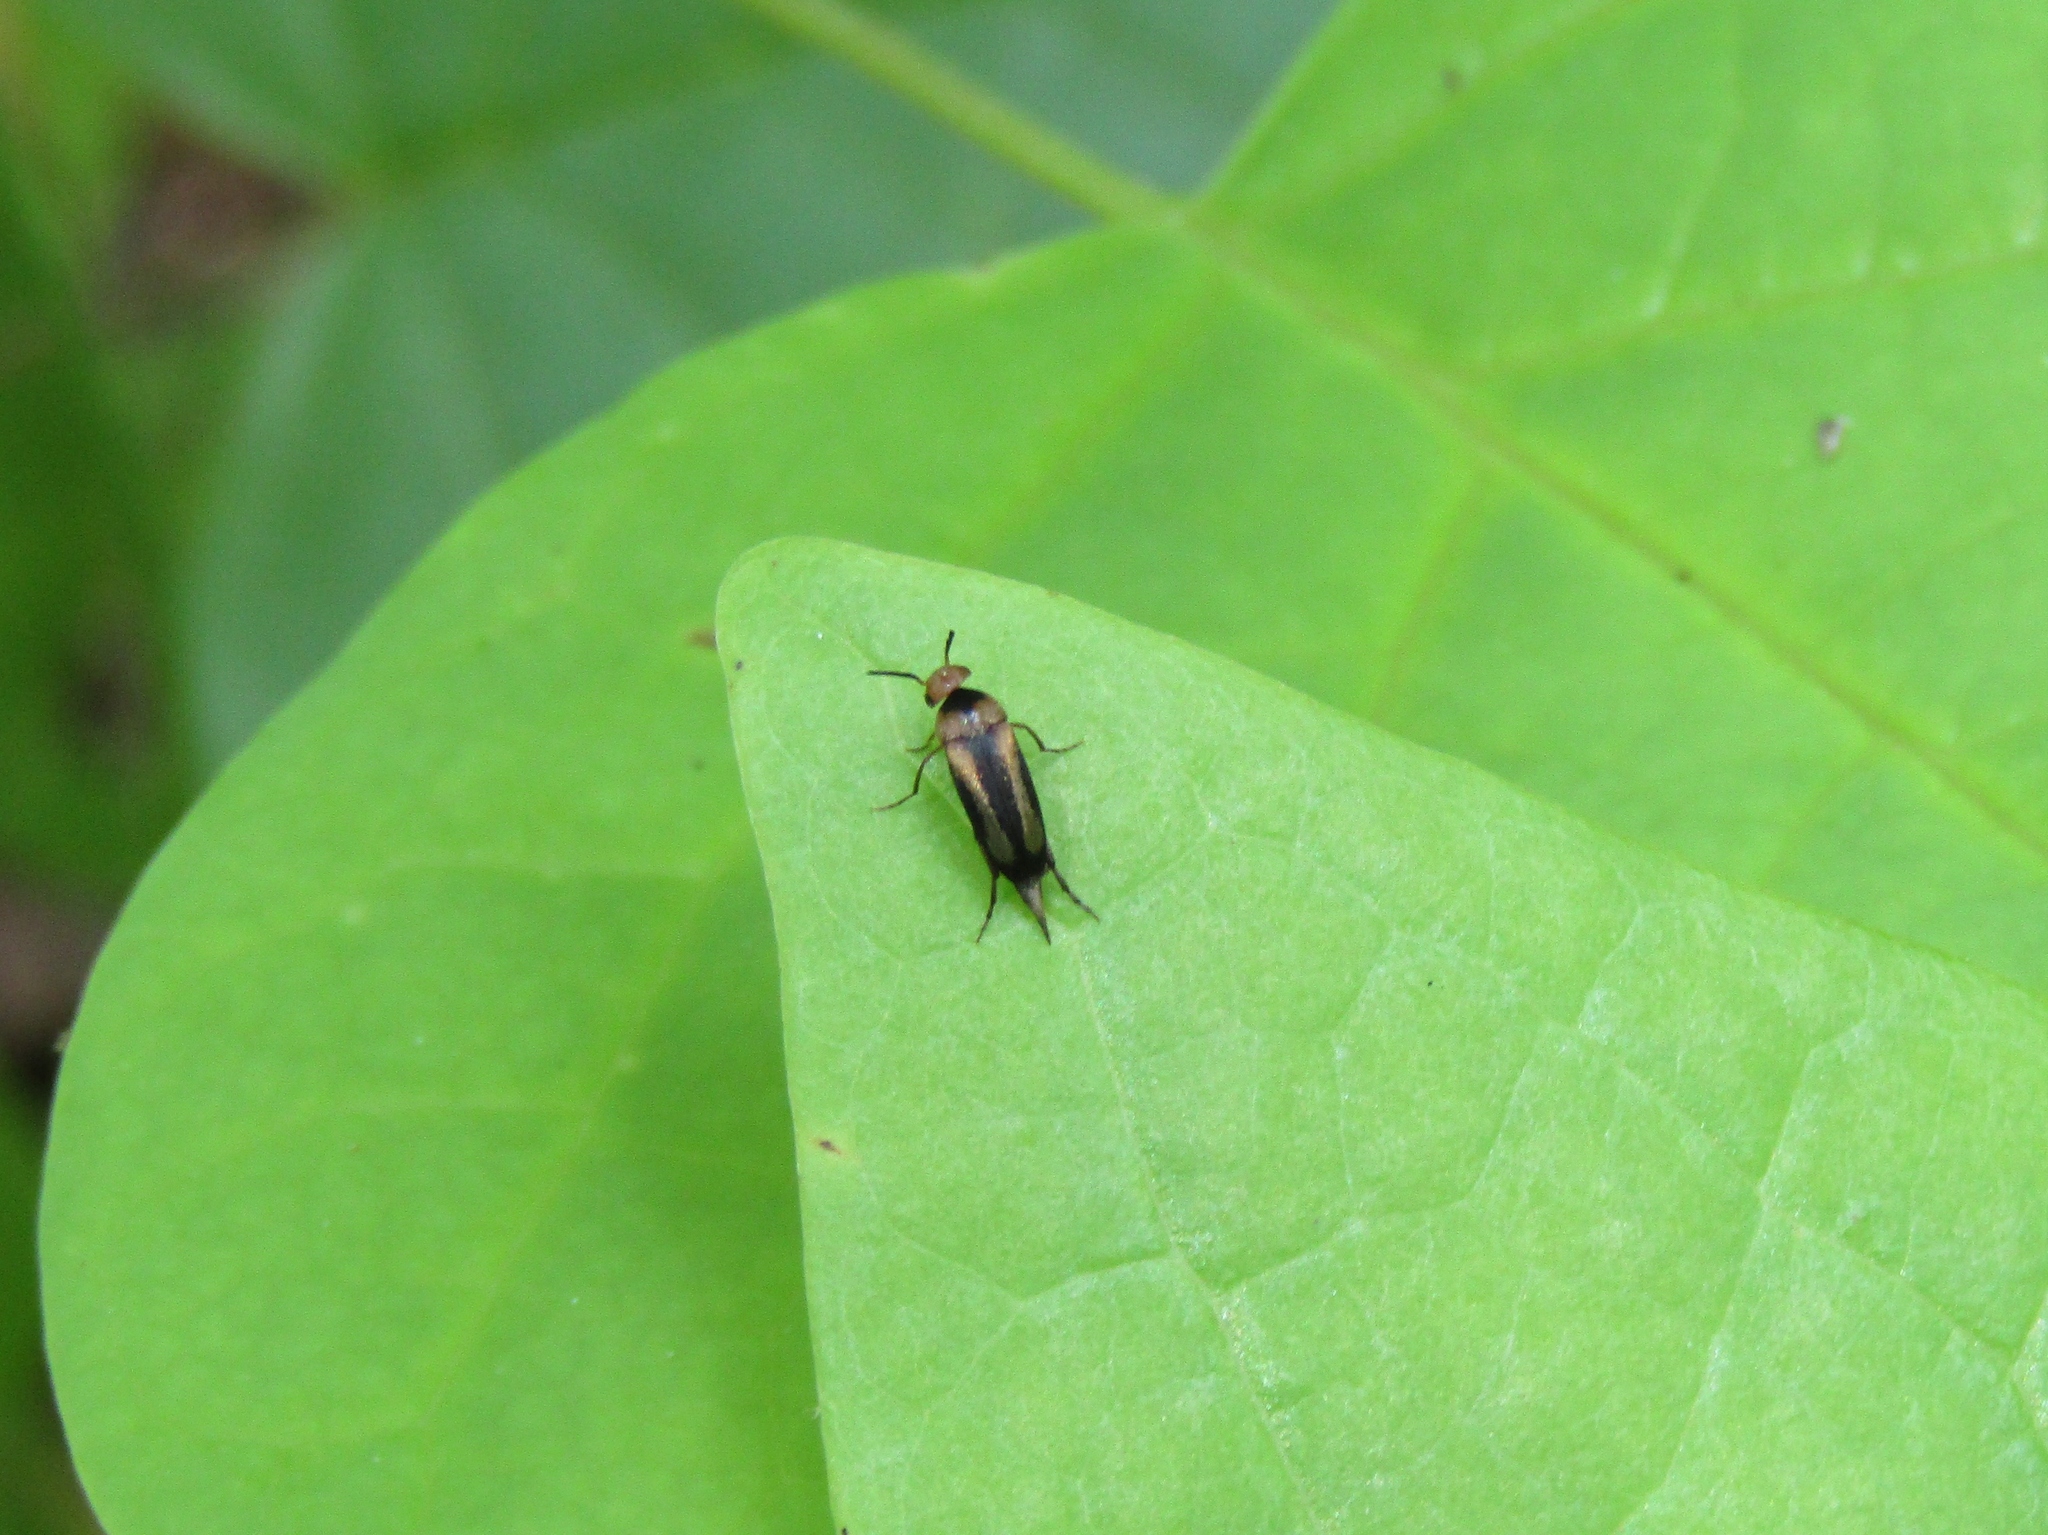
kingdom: Animalia
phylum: Arthropoda
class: Insecta
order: Coleoptera
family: Mordellidae
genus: Mordellistena
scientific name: Mordellistena attenuata
